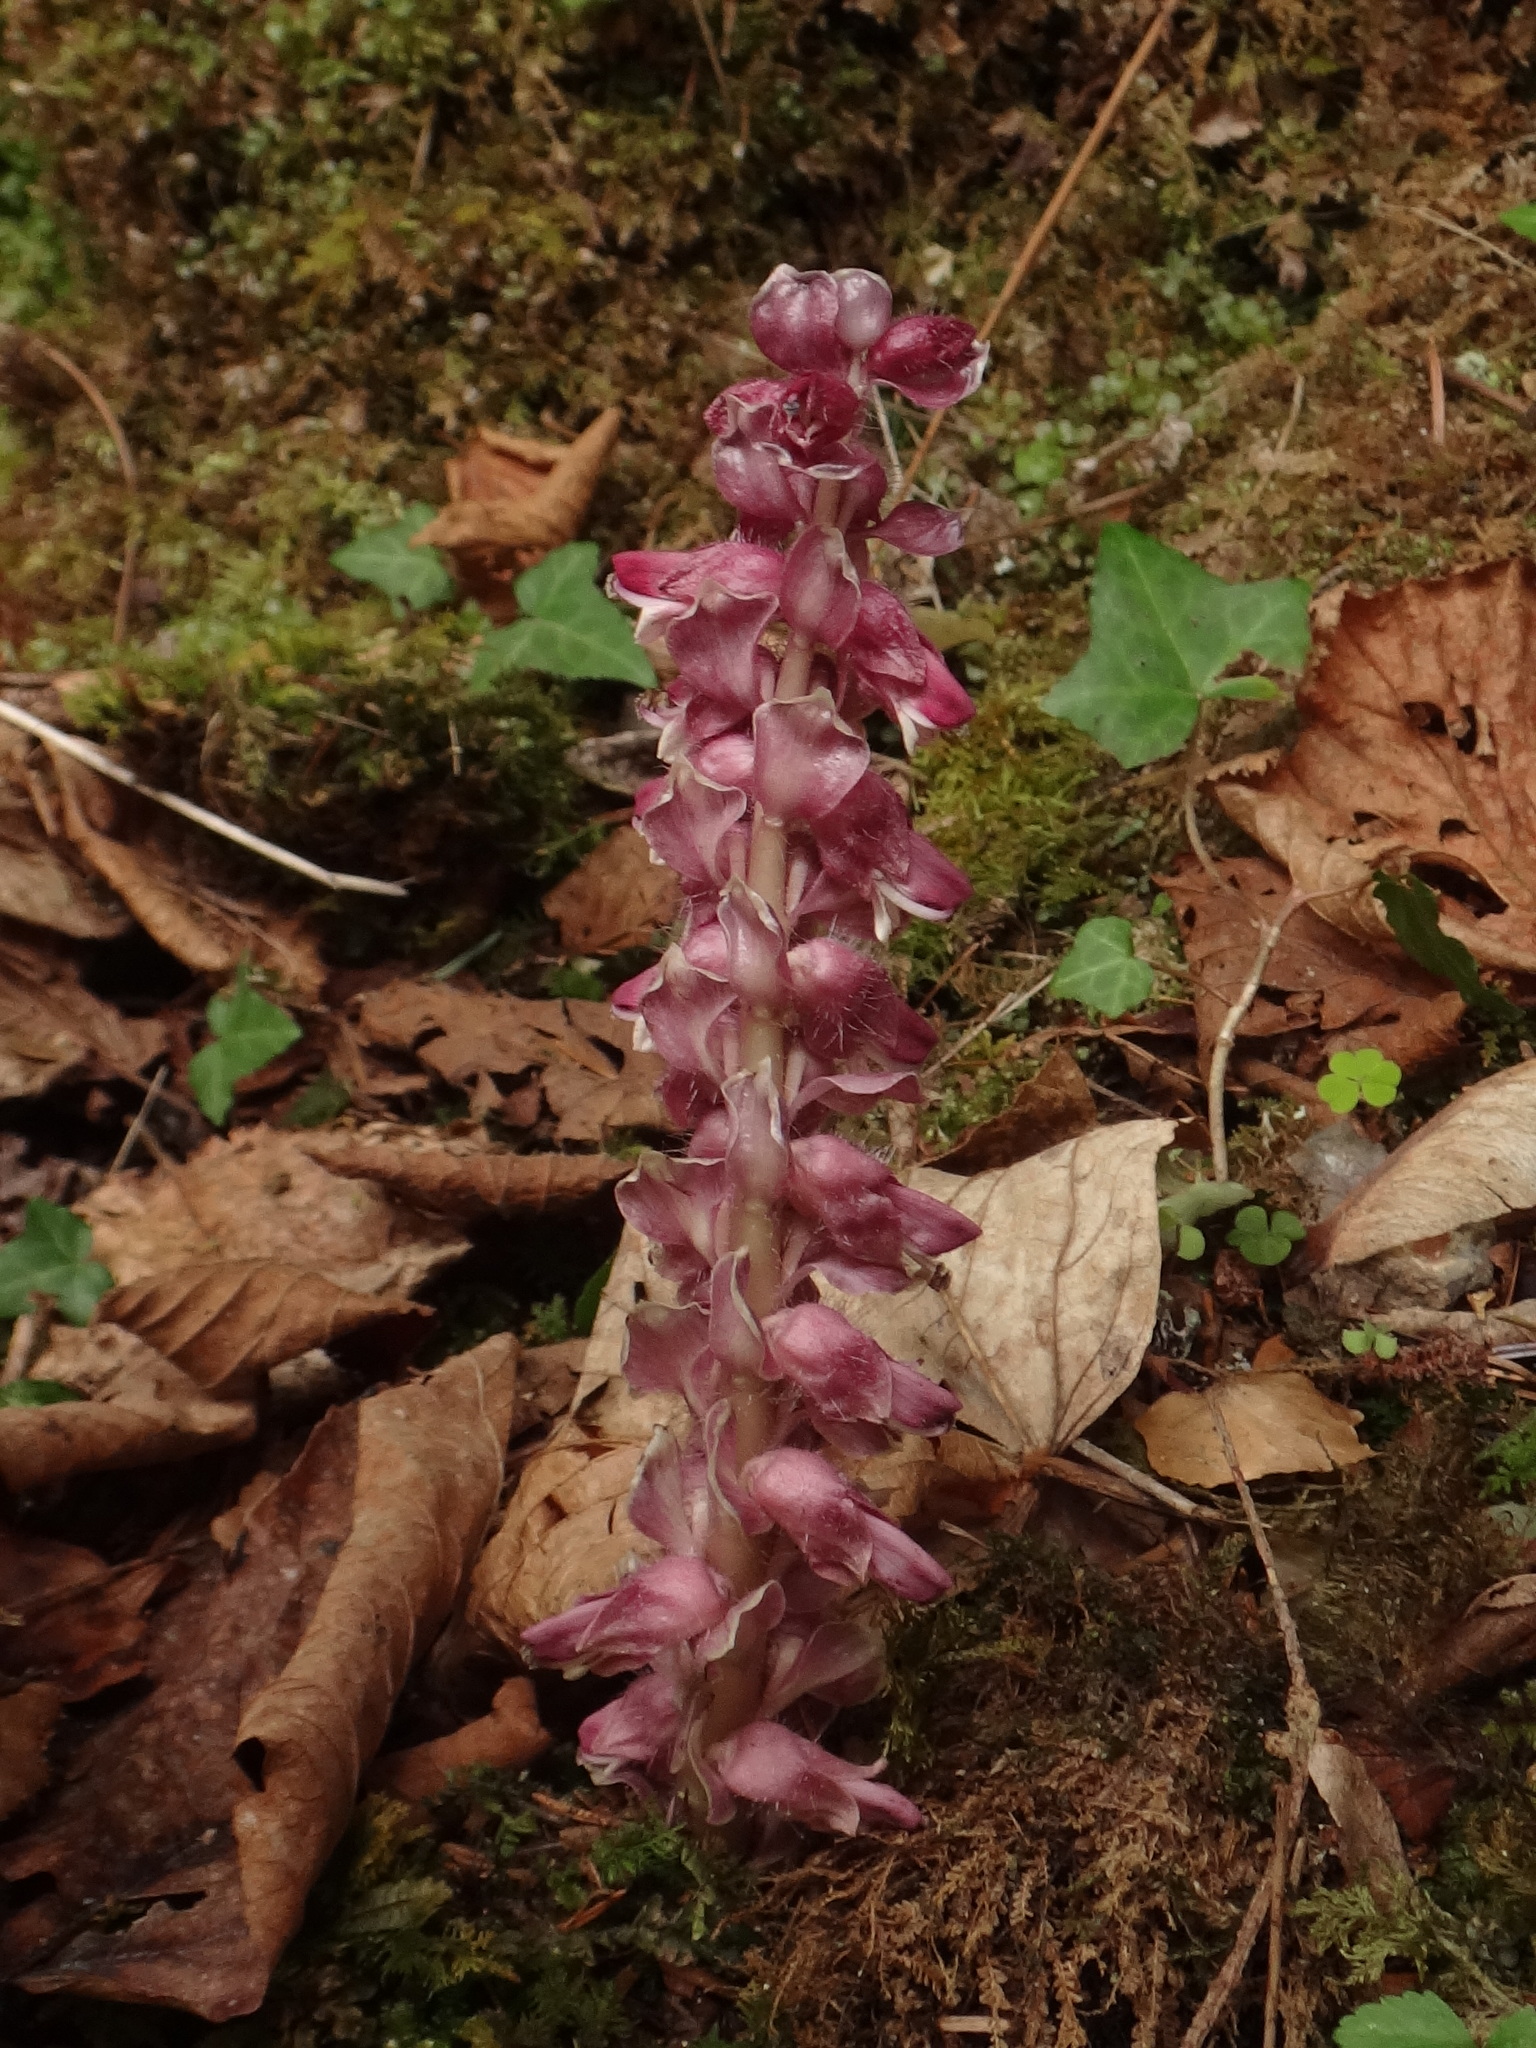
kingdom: Plantae
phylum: Tracheophyta
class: Magnoliopsida
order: Lamiales
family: Orobanchaceae
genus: Lathraea
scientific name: Lathraea squamaria
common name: Toothwort
